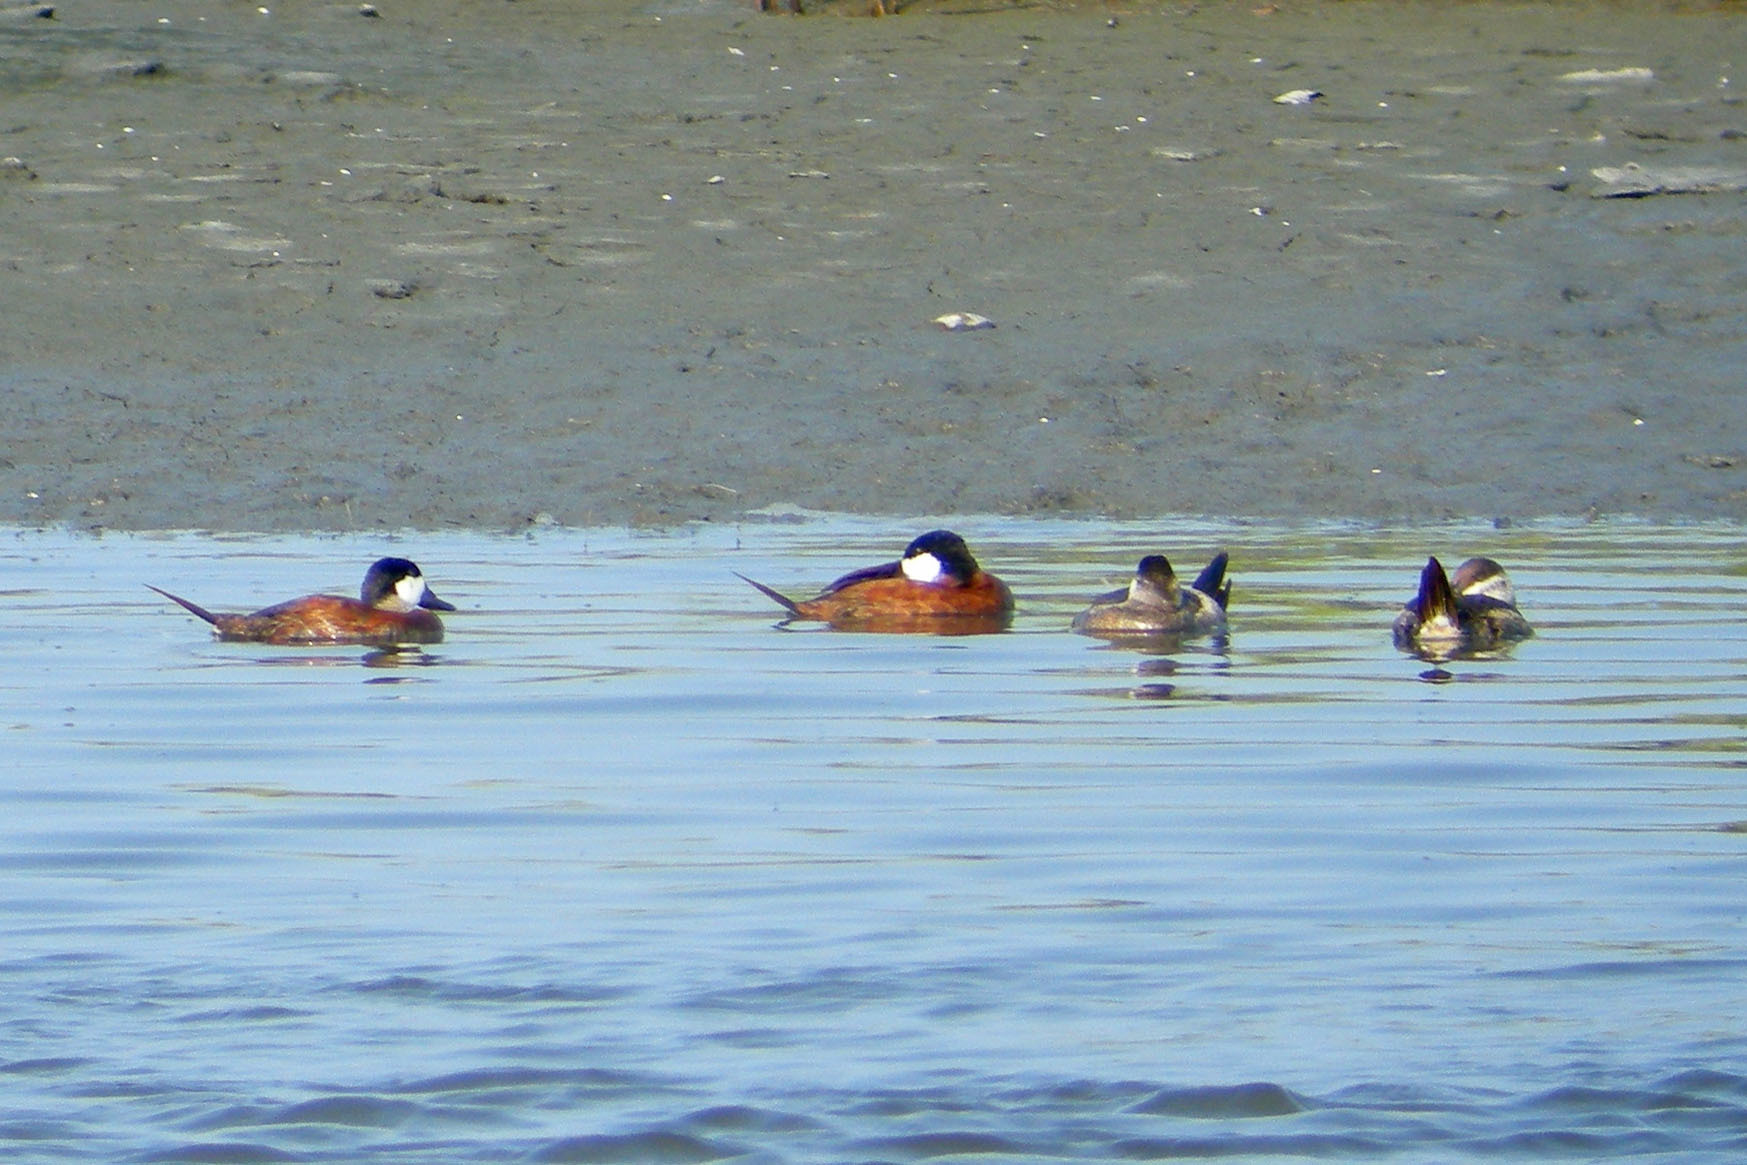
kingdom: Animalia
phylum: Chordata
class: Aves
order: Anseriformes
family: Anatidae
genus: Oxyura
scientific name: Oxyura jamaicensis
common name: Ruddy duck
